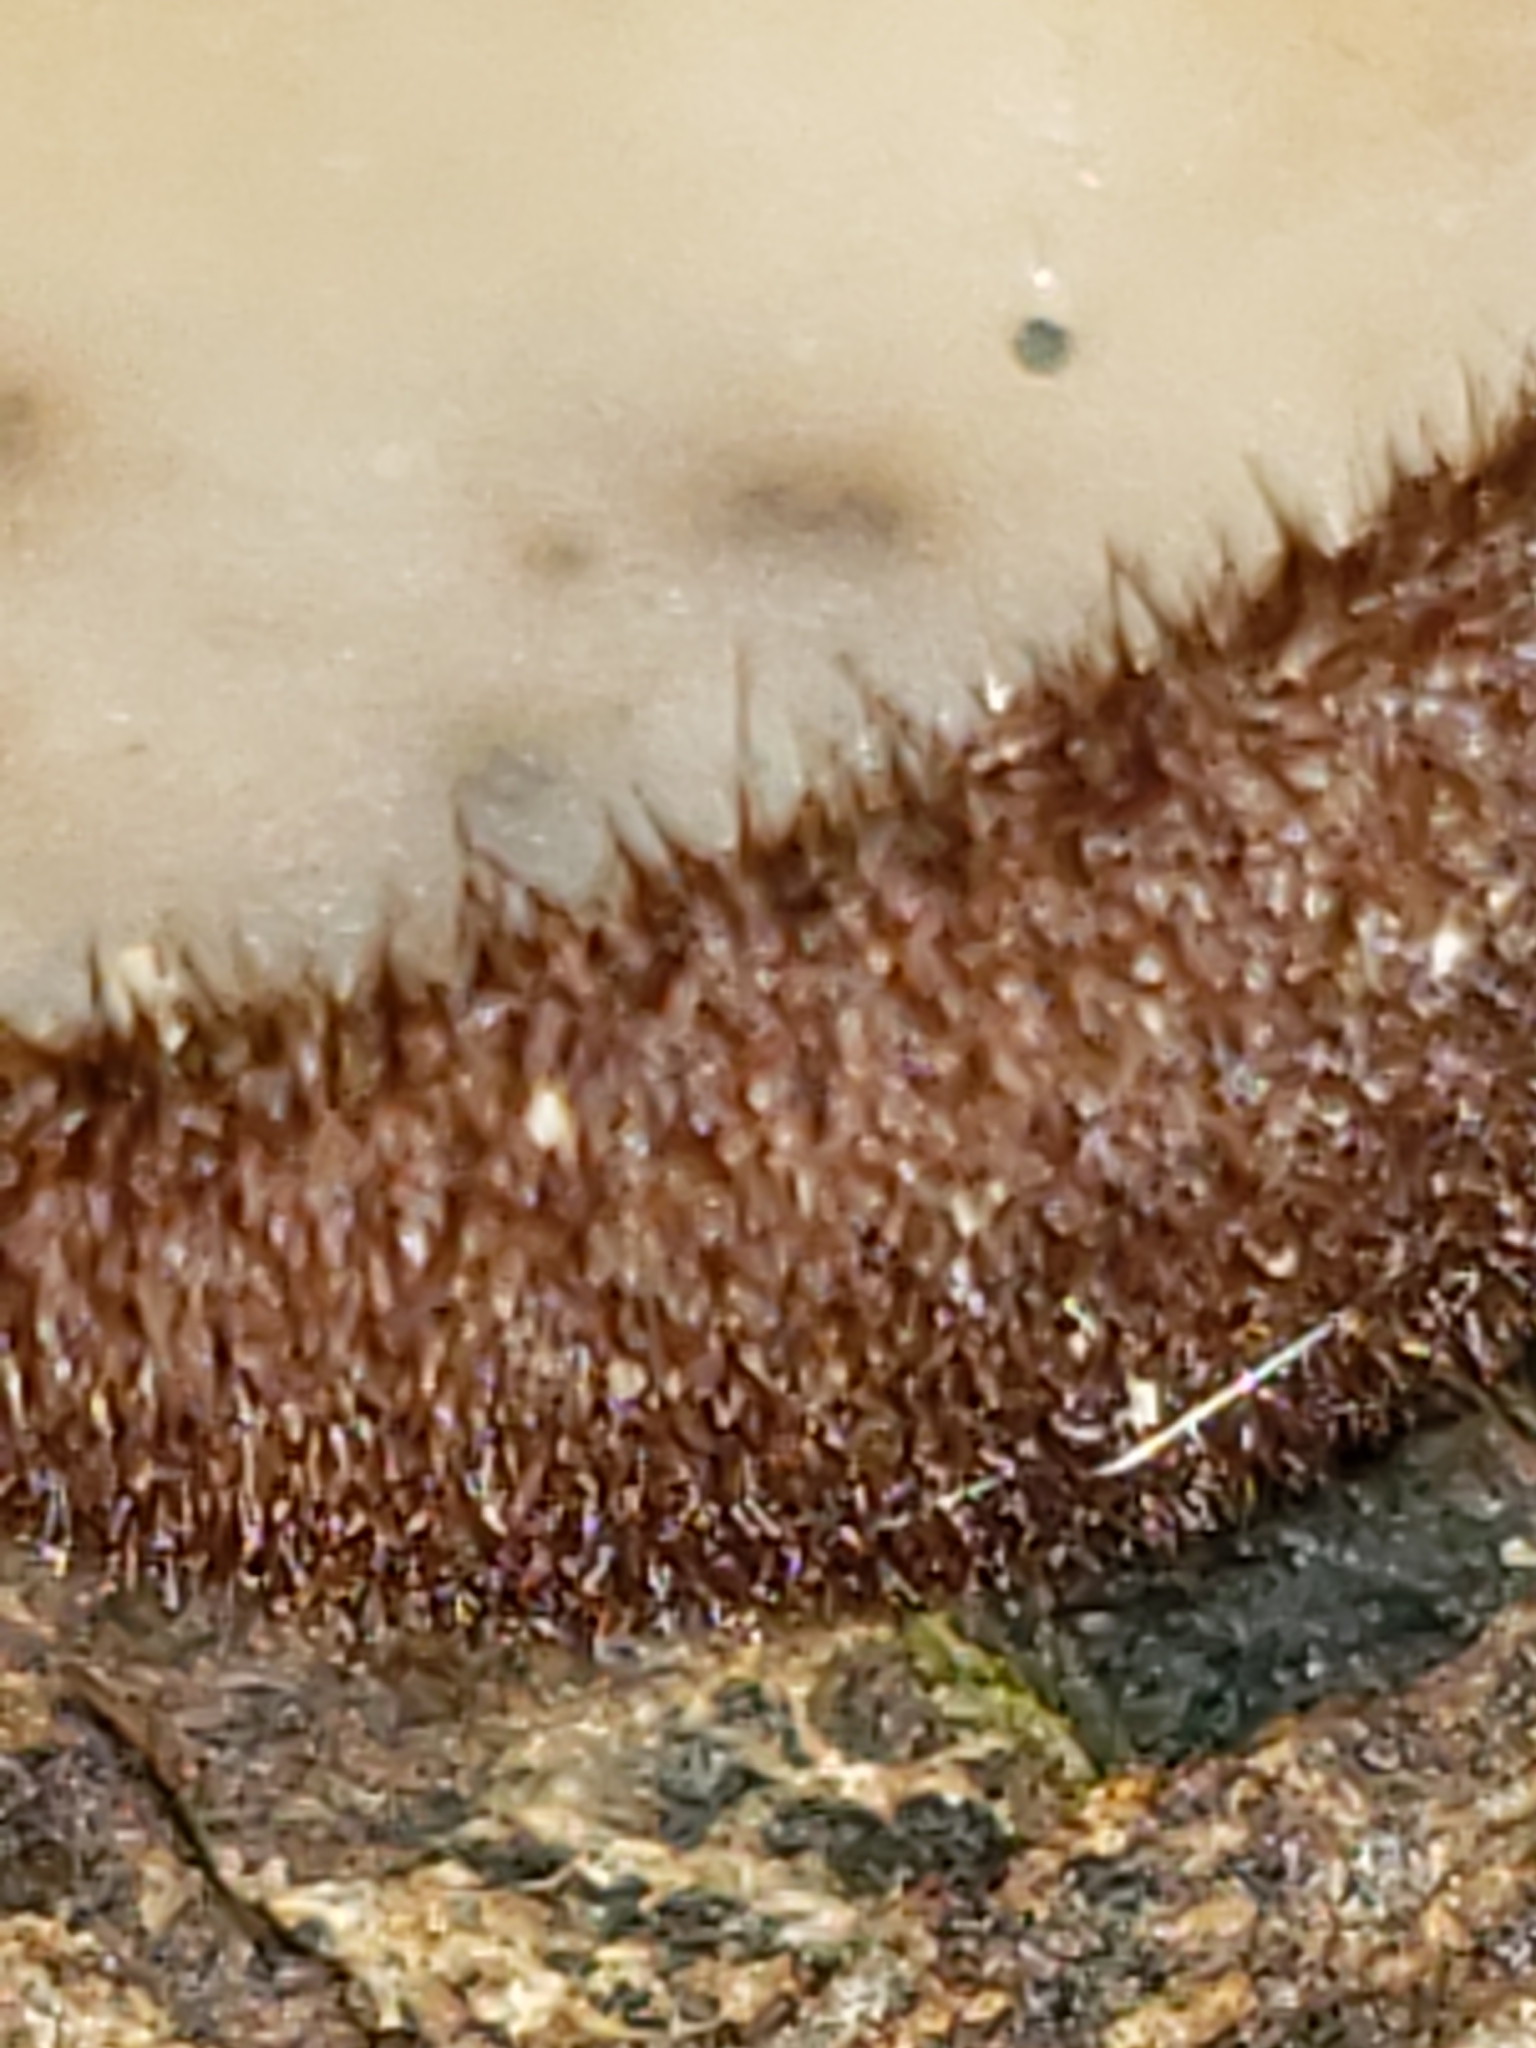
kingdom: Fungi
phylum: Ascomycota
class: Pezizomycetes
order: Pezizales
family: Pyronemataceae
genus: Humaria
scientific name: Humaria hemisphaerica
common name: Glazed cup
